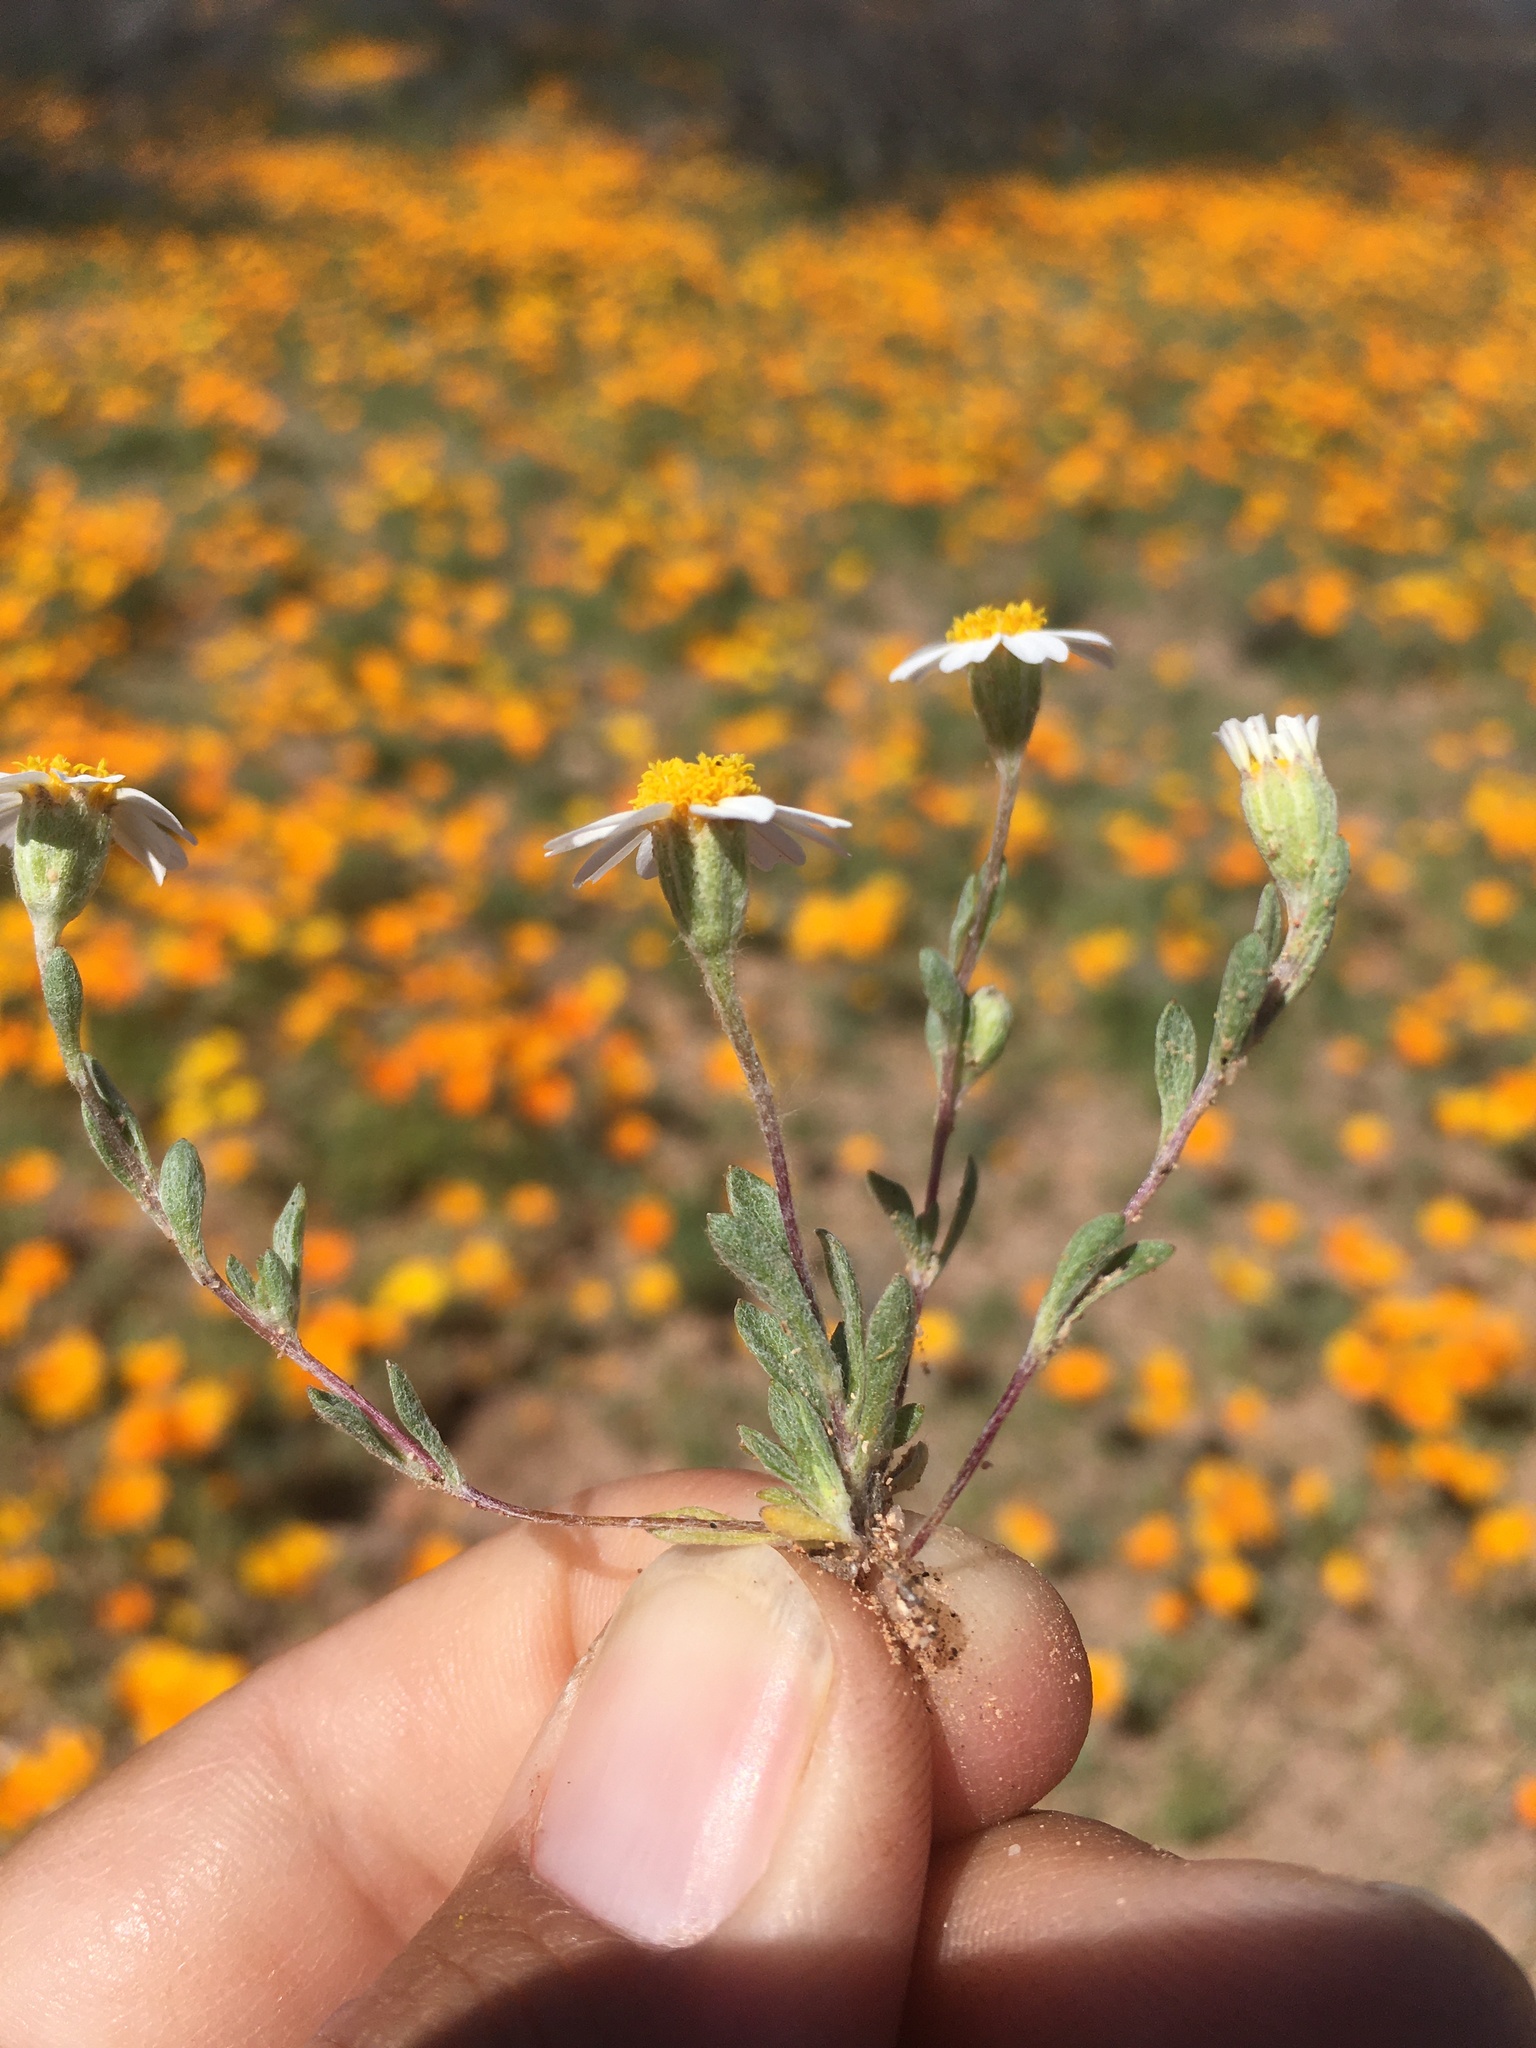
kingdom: Plantae
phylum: Tracheophyta
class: Magnoliopsida
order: Asterales
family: Asteraceae
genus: Eriophyllum
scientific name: Eriophyllum lanosum
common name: White easter-bonnets
